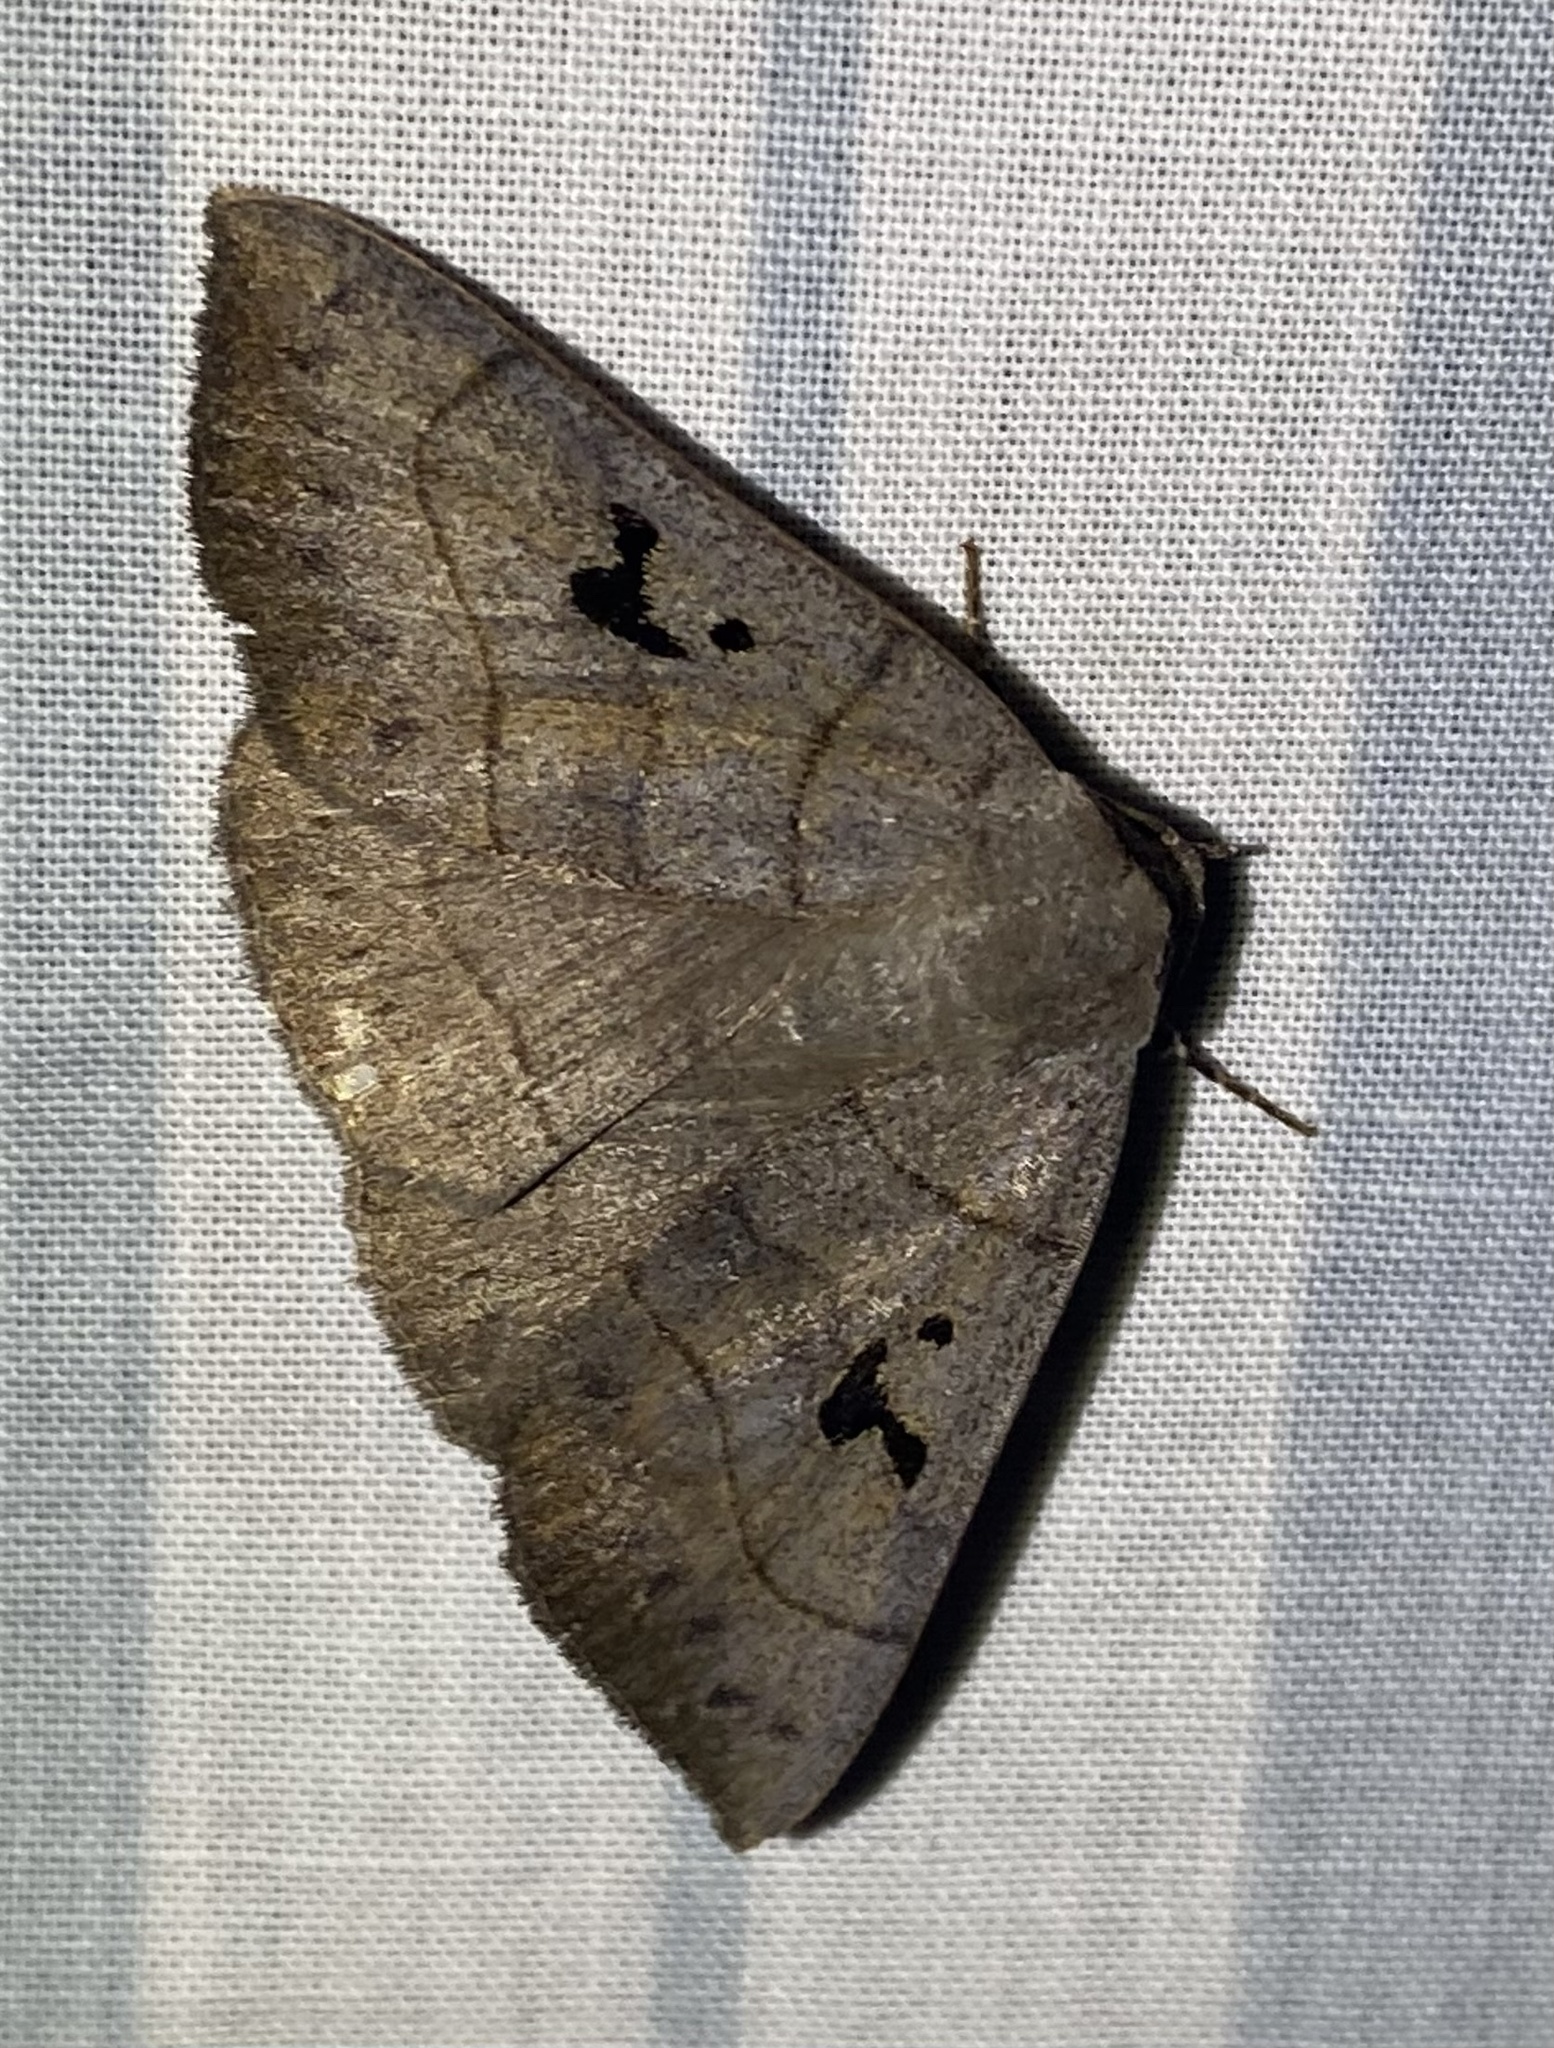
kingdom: Animalia
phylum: Arthropoda
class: Insecta
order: Lepidoptera
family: Erebidae
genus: Panopoda
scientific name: Panopoda carneicosta
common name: Brown panopoda moth
